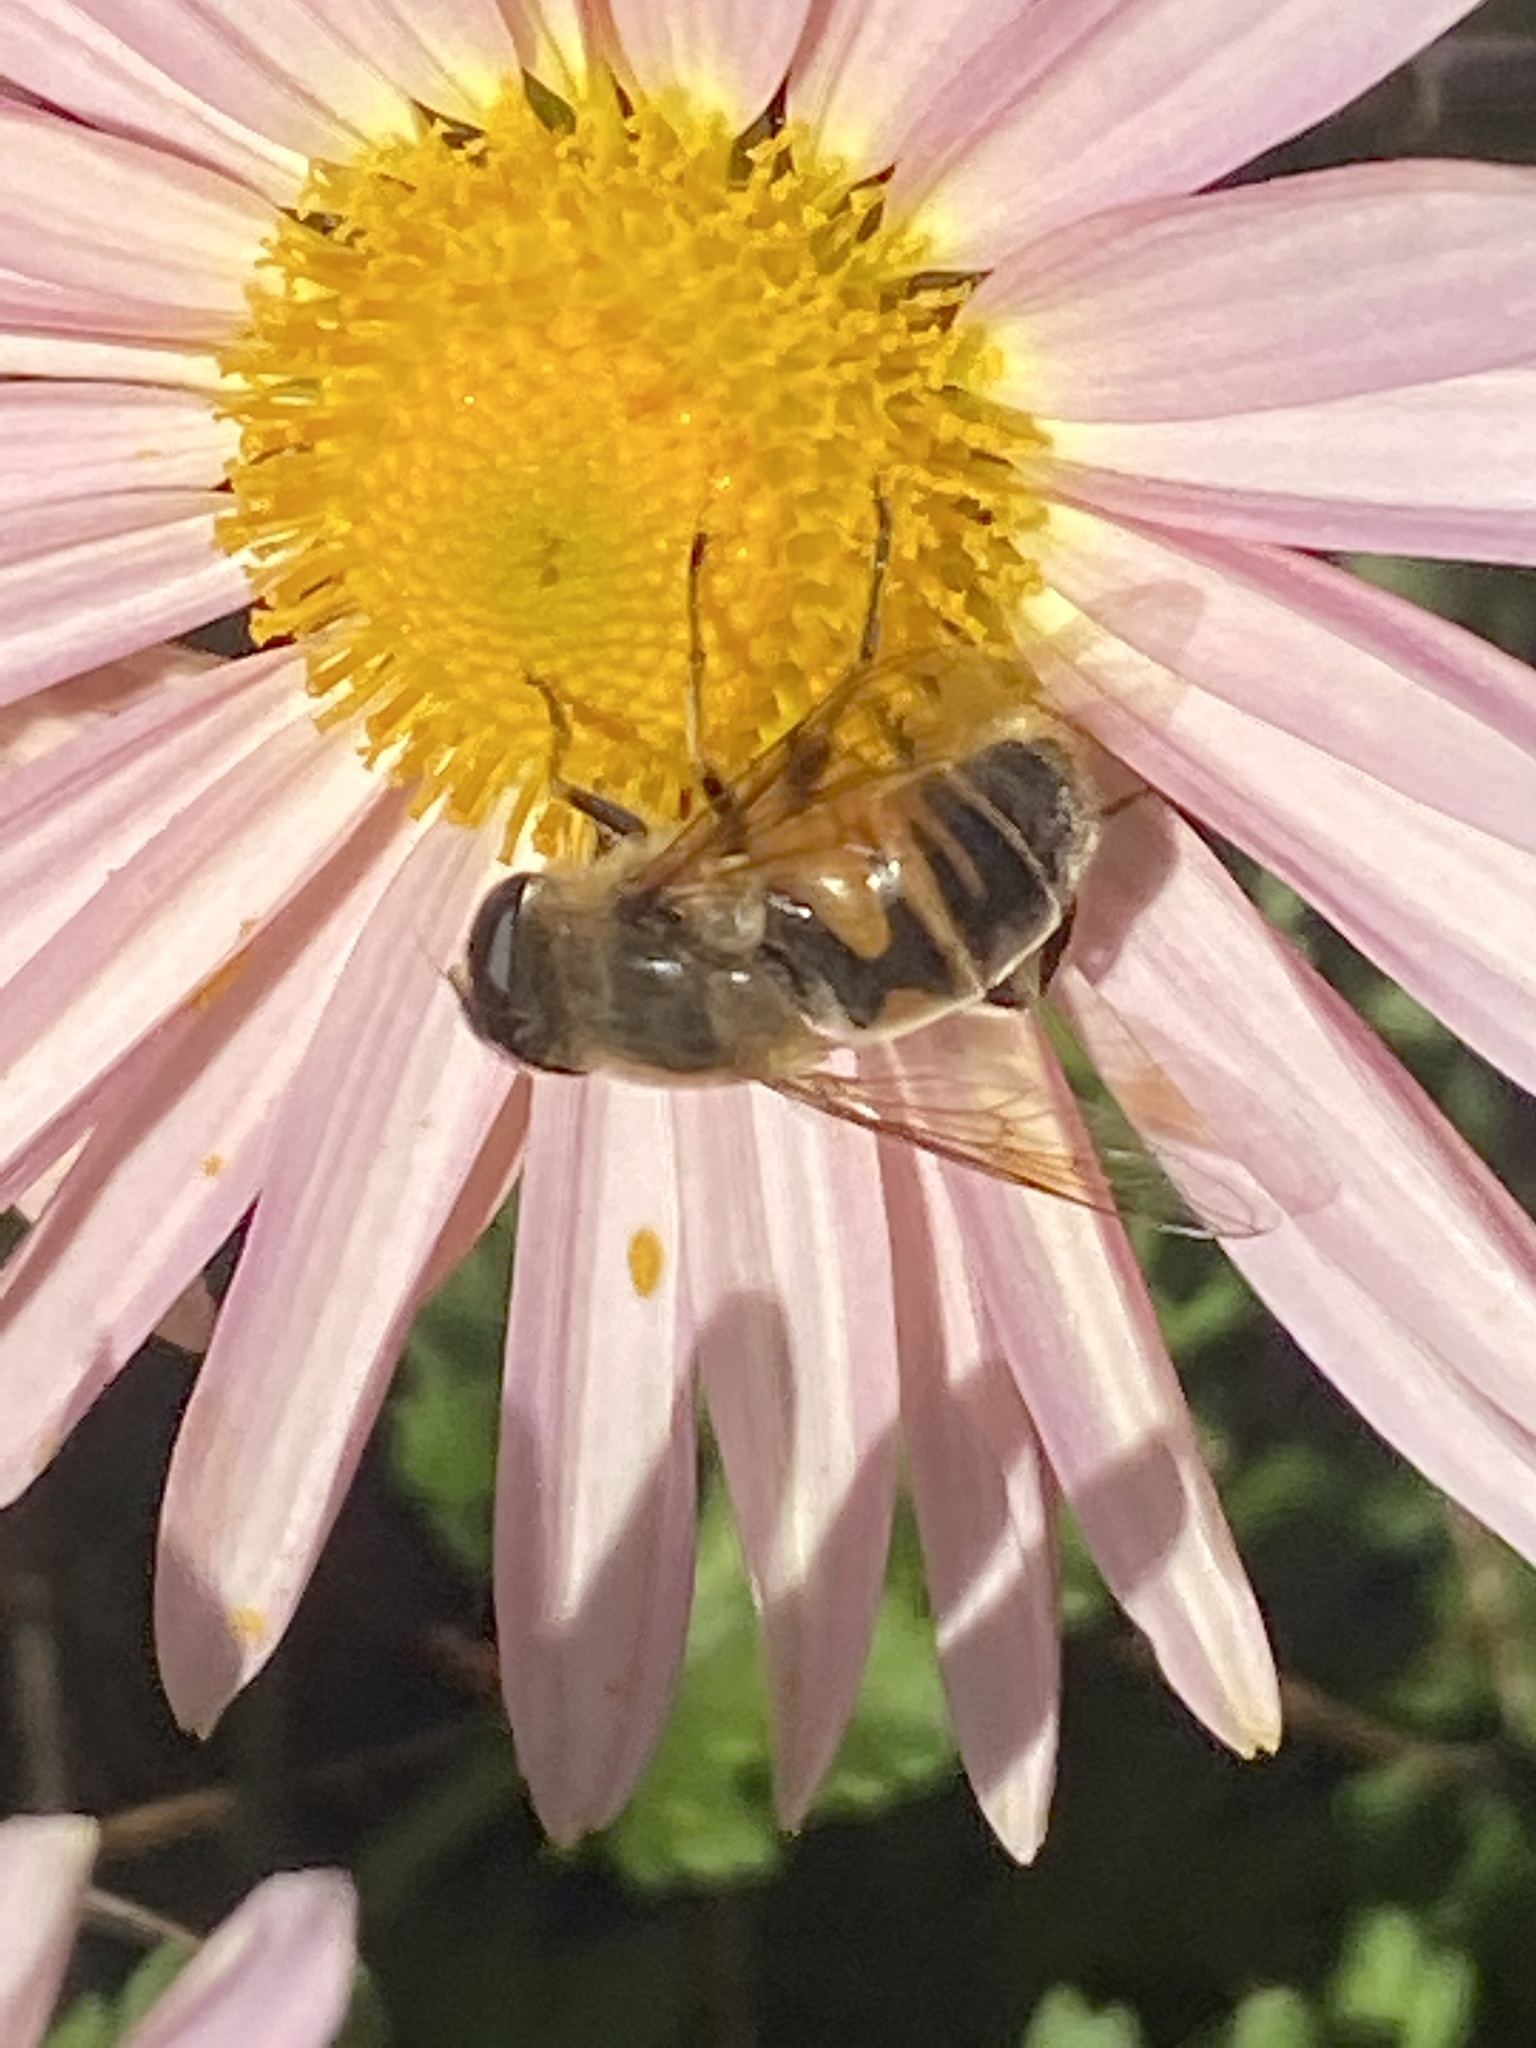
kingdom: Animalia
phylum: Arthropoda
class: Insecta
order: Diptera
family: Syrphidae
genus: Eristalis
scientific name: Eristalis tenax
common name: Drone fly
